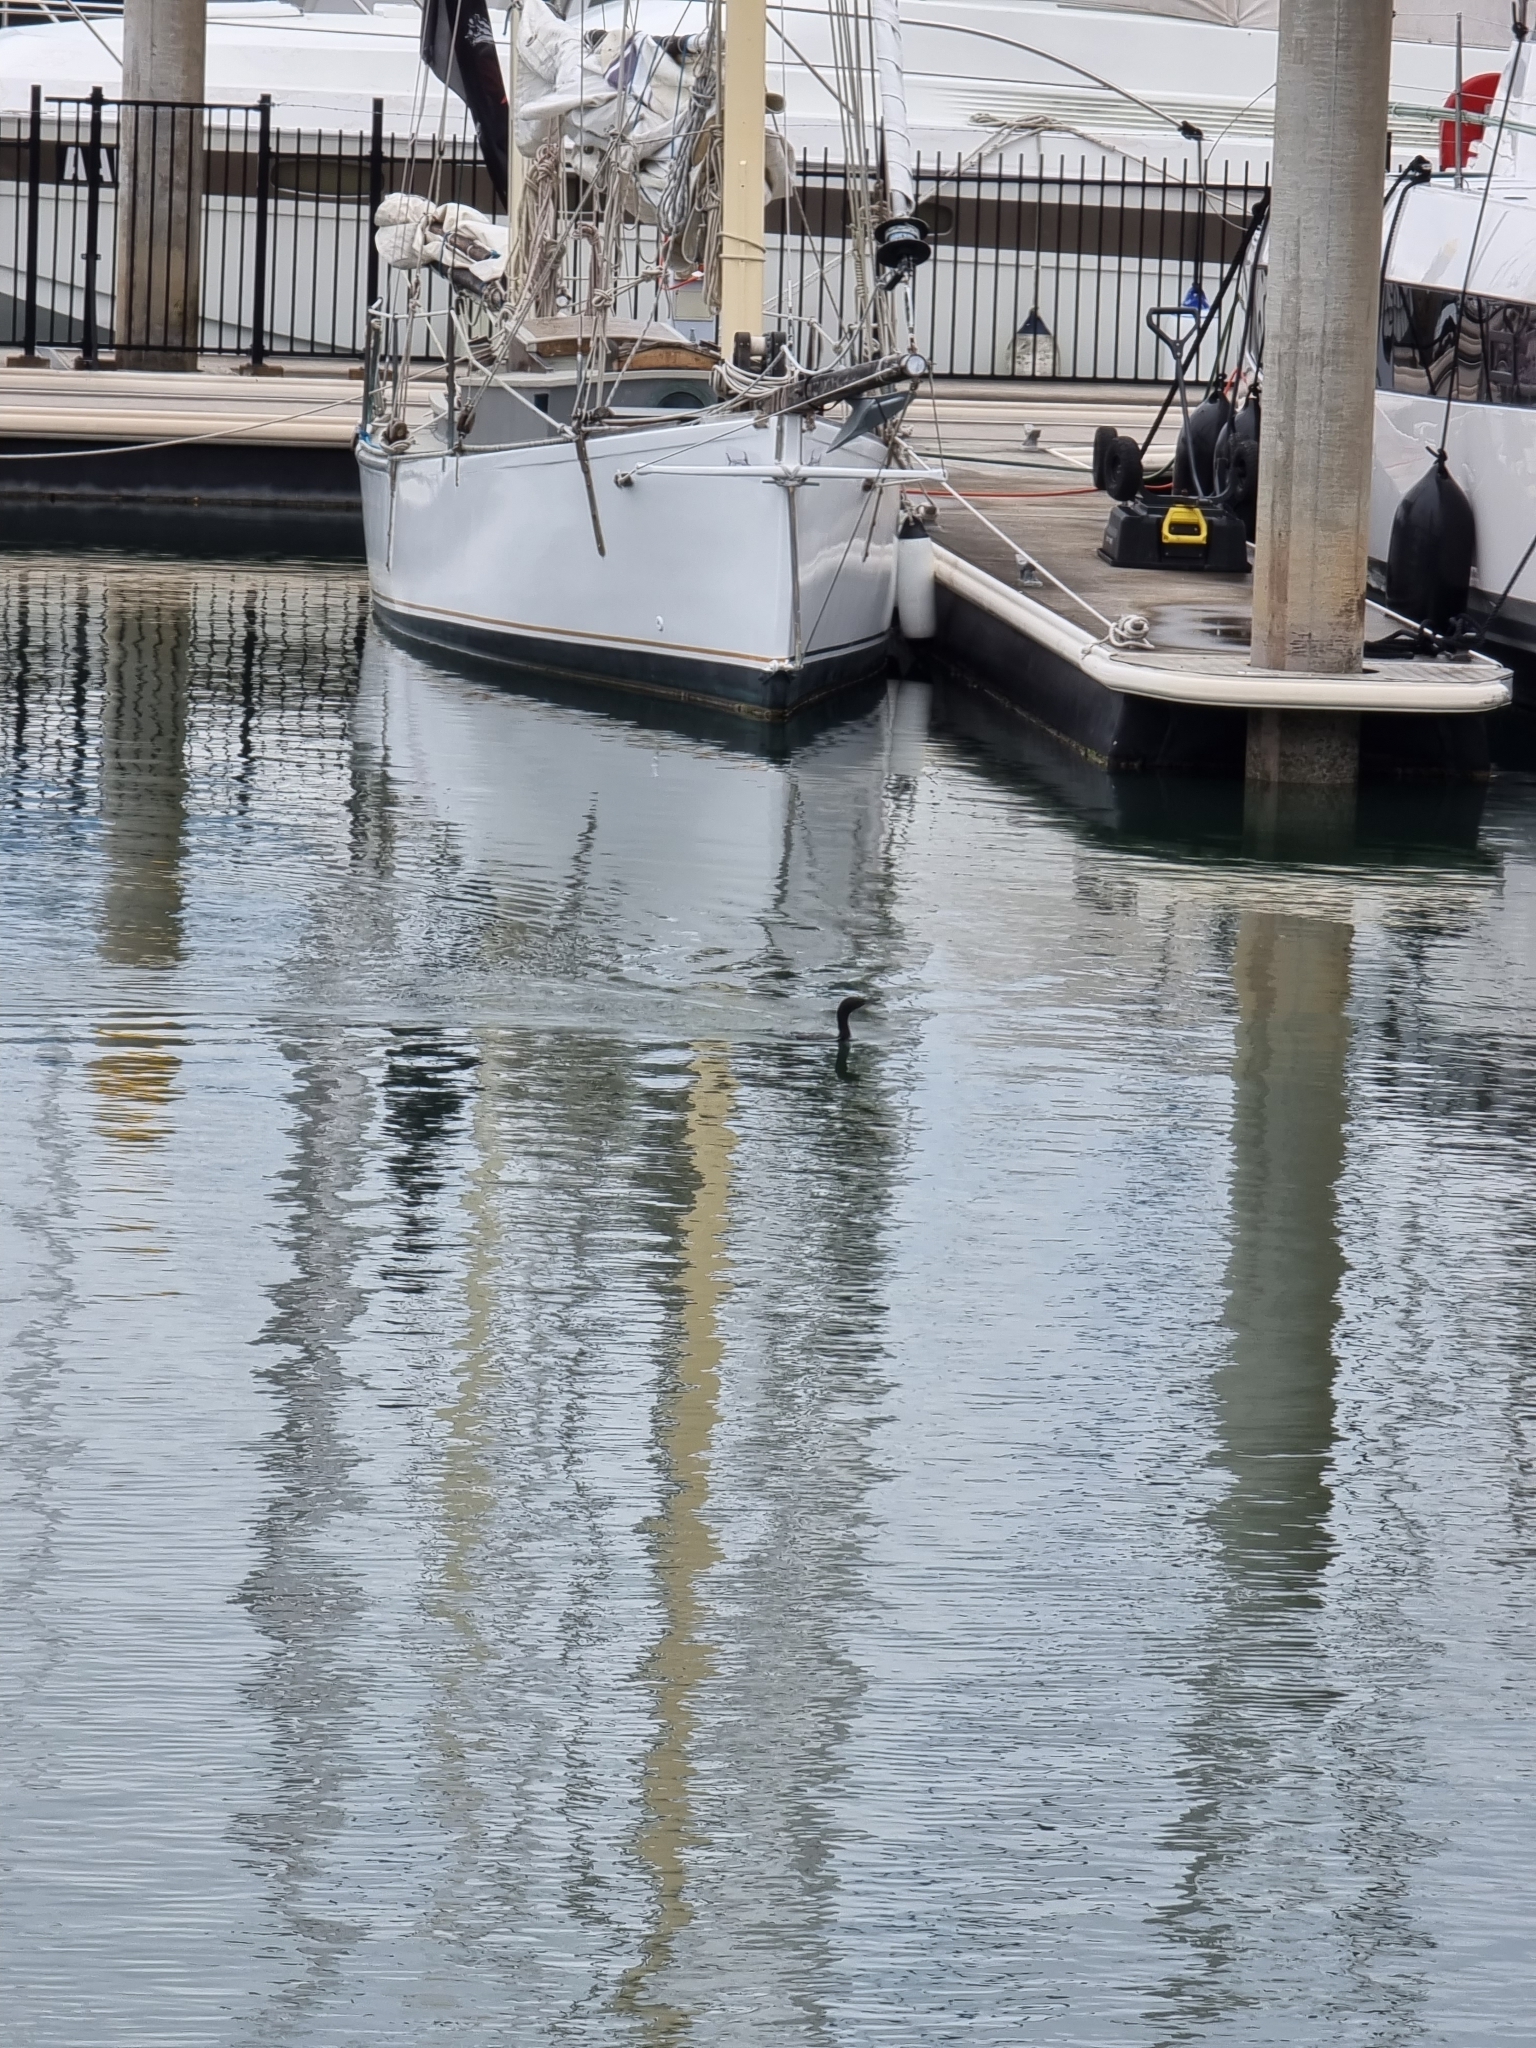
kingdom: Animalia
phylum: Chordata
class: Aves
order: Suliformes
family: Phalacrocoracidae
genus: Phalacrocorax
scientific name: Phalacrocorax sulcirostris
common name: Little black cormorant
